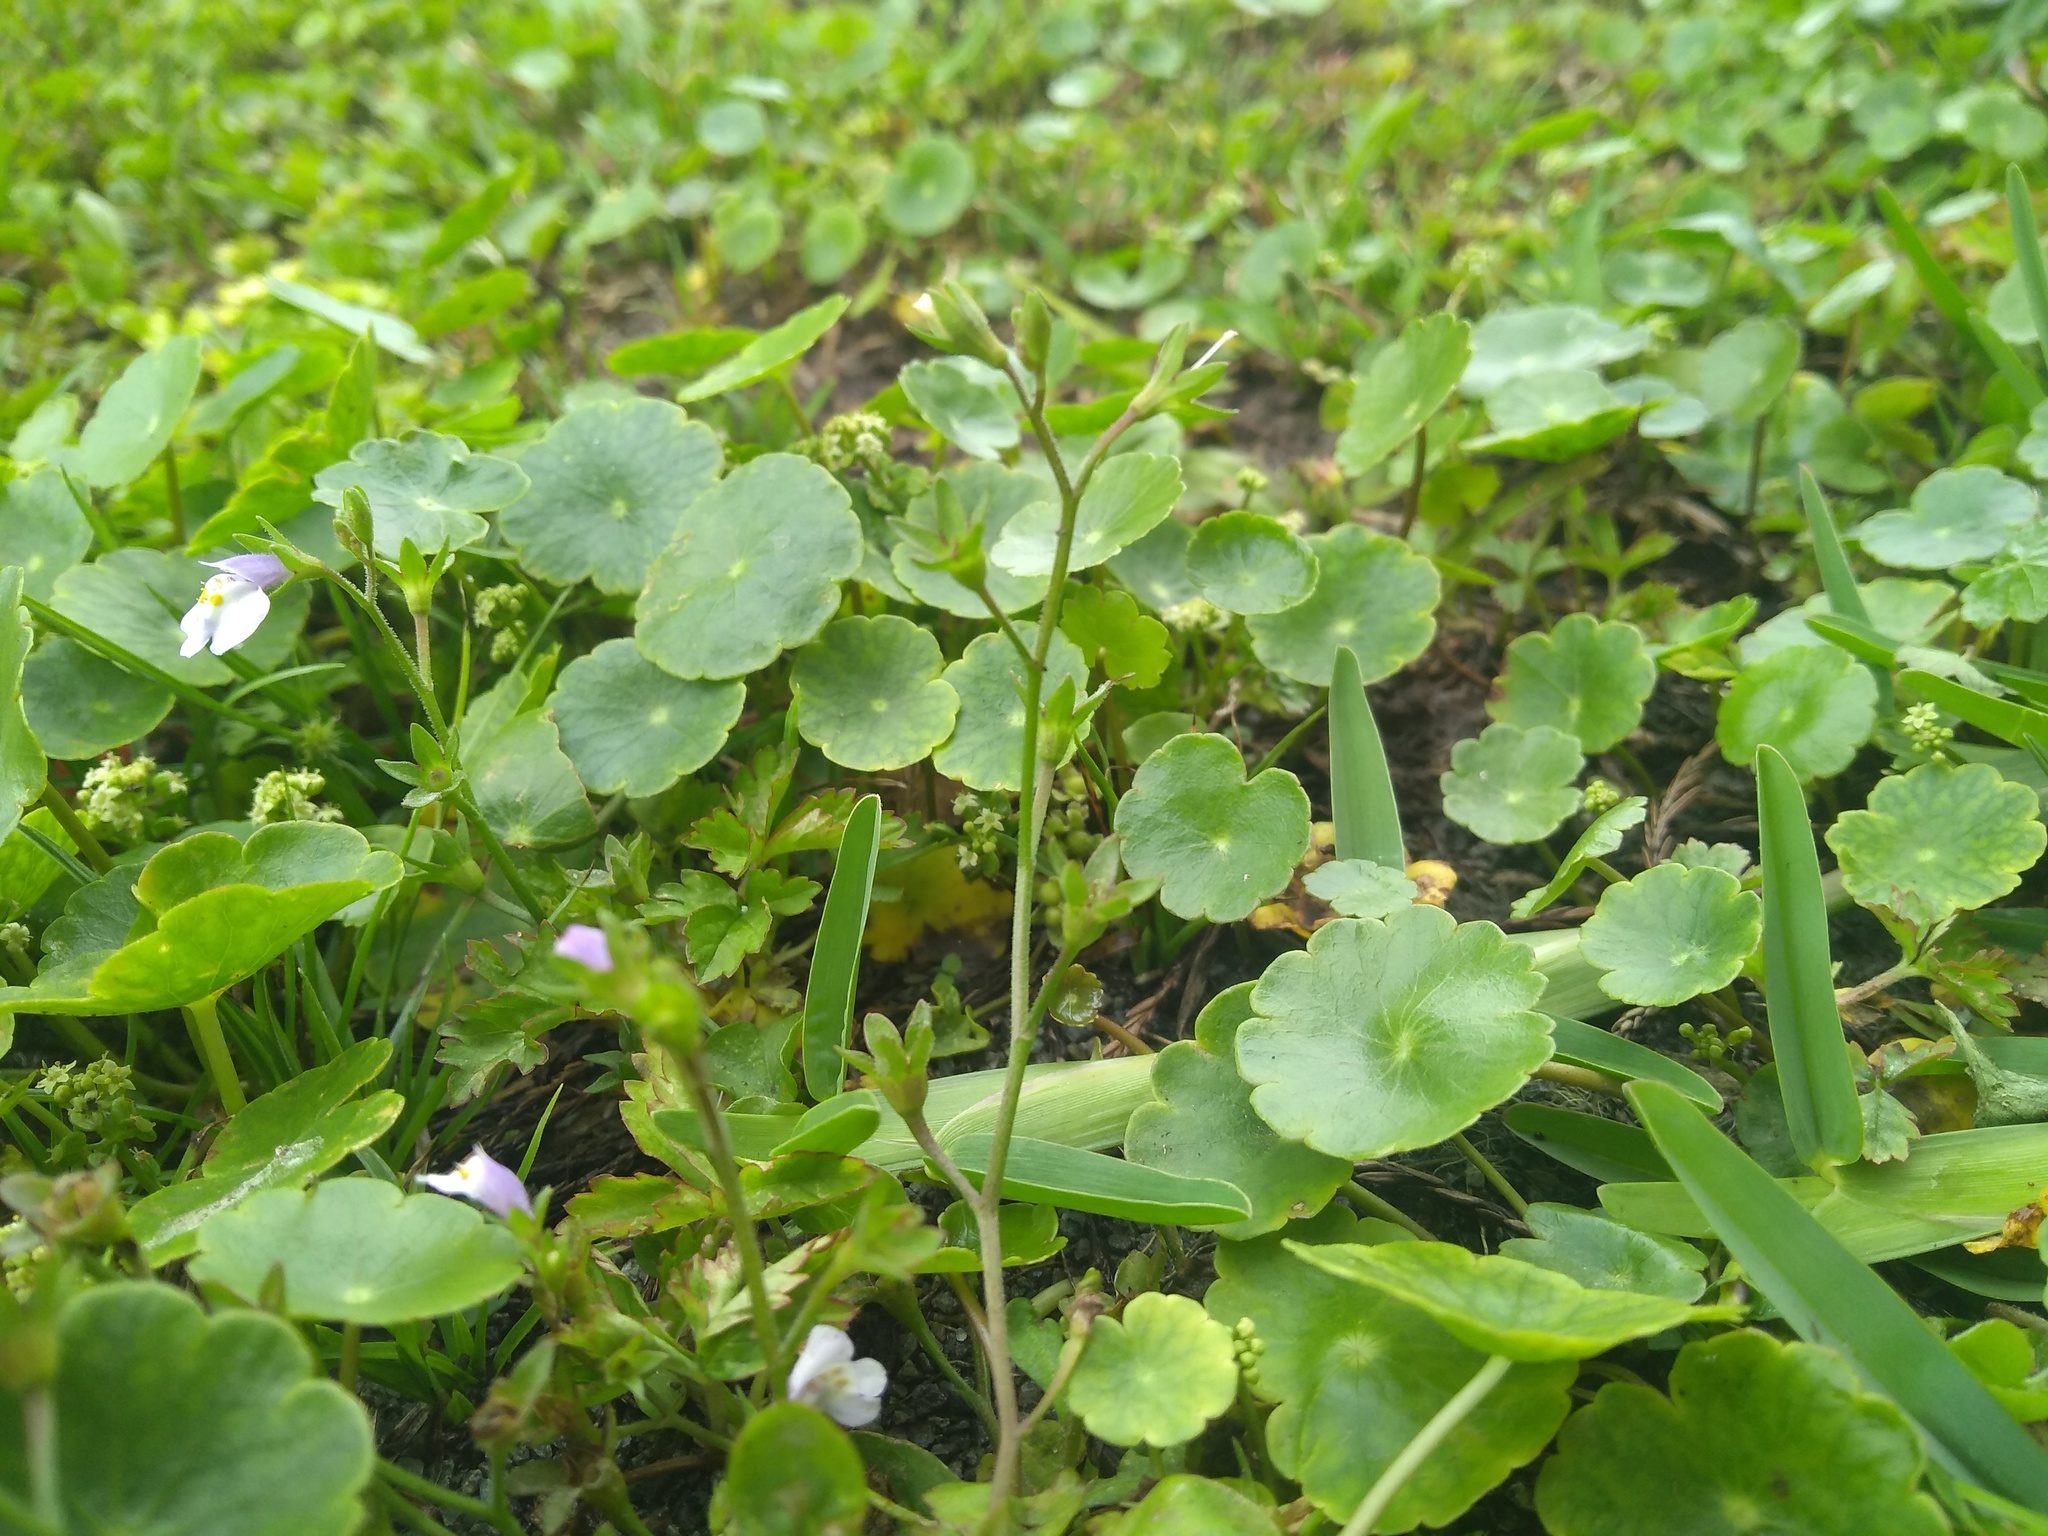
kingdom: Plantae
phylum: Tracheophyta
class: Magnoliopsida
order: Lamiales
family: Mazaceae
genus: Mazus
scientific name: Mazus pumilus
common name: Japanese mazus
